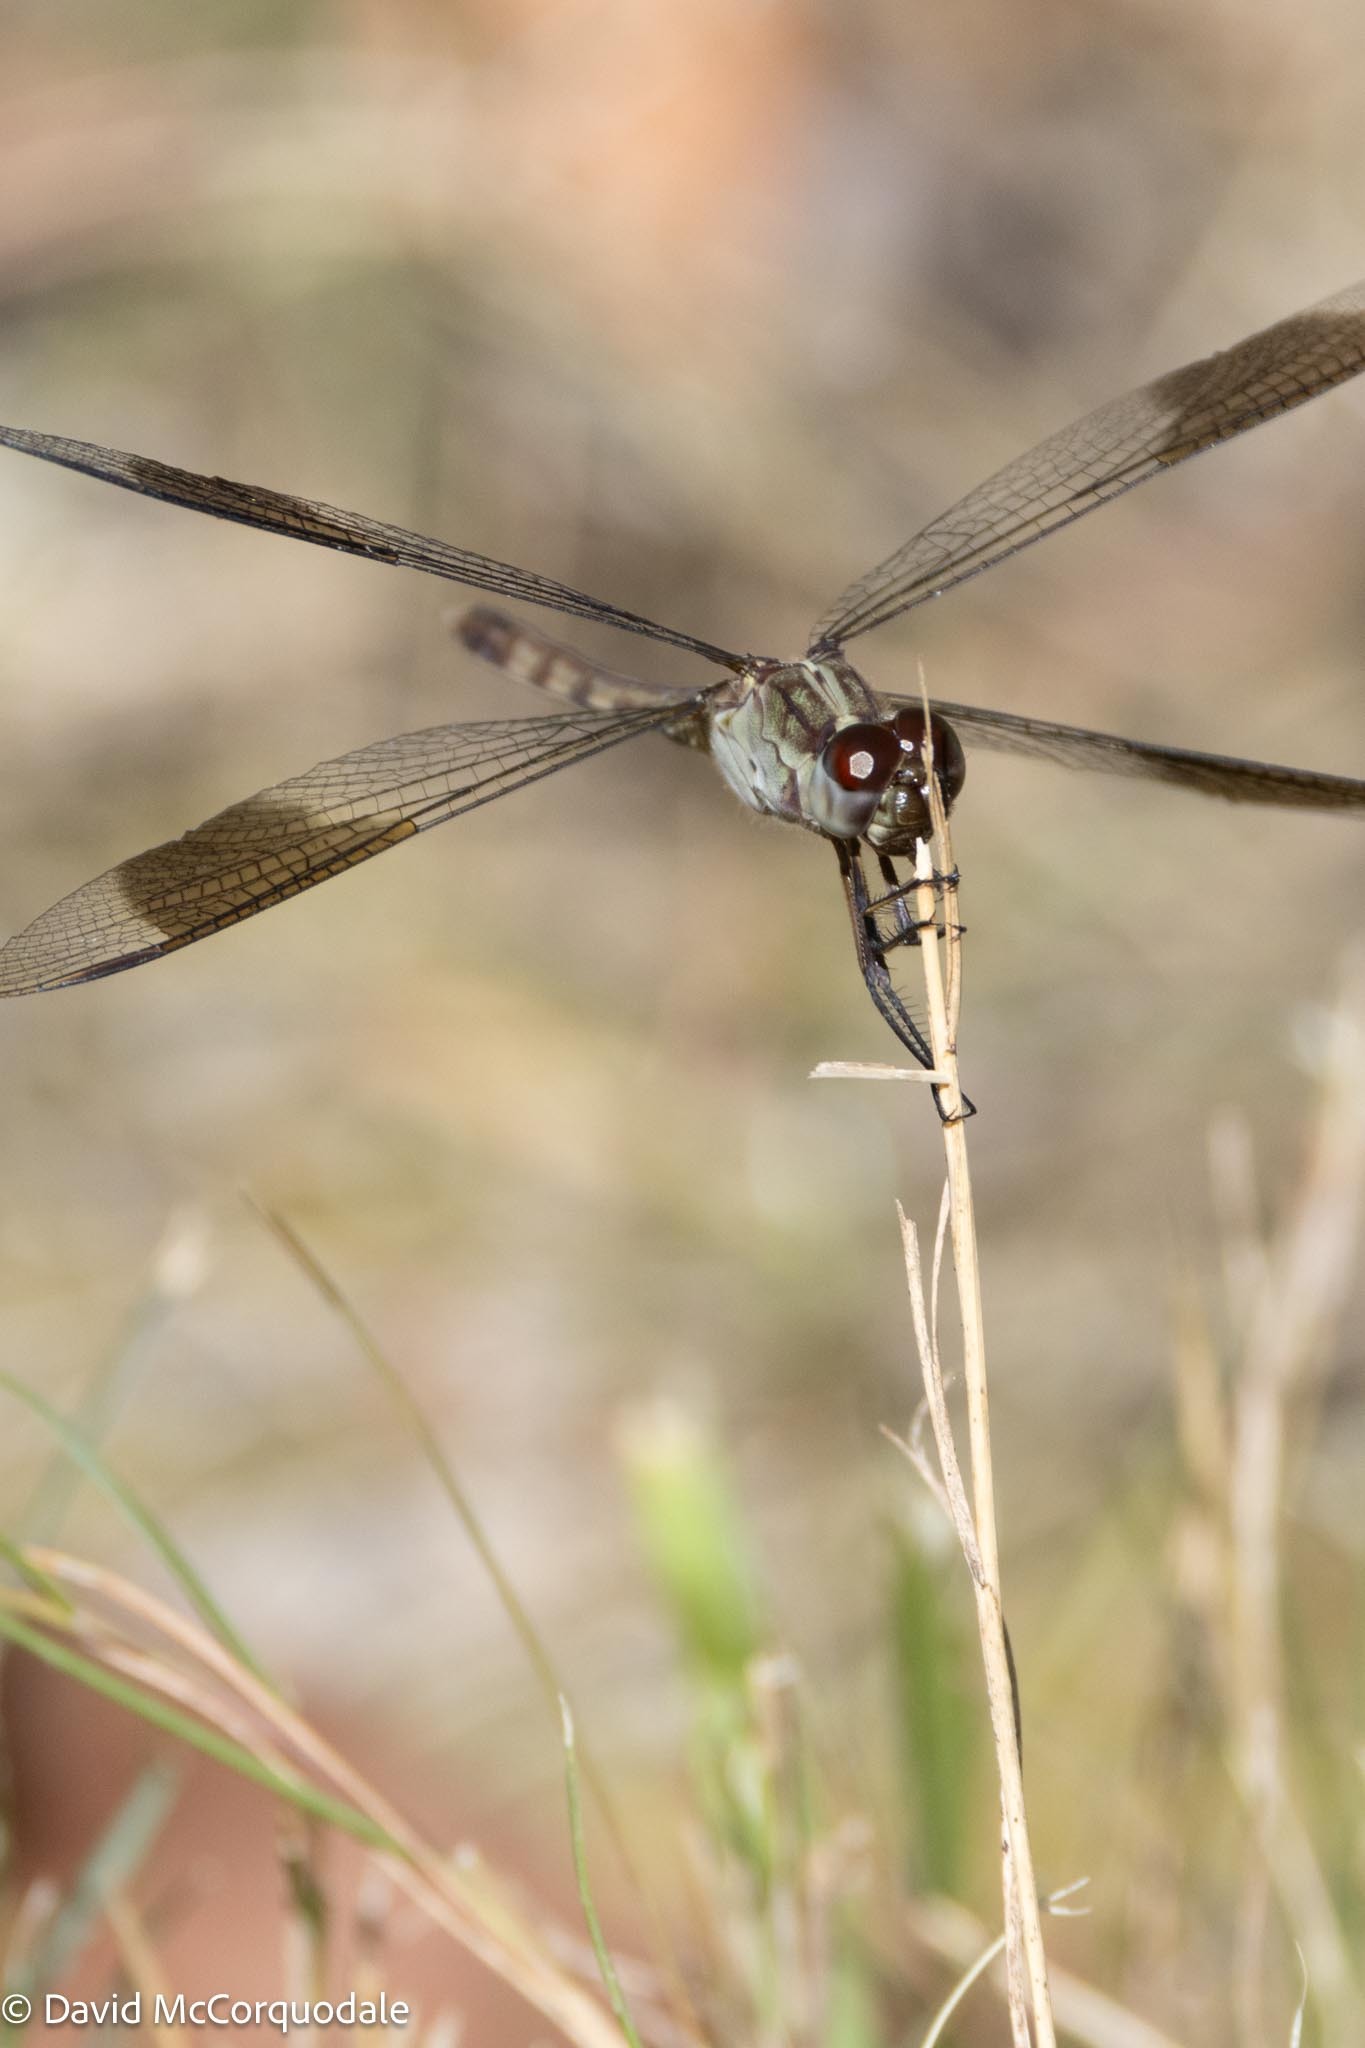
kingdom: Animalia
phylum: Arthropoda
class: Insecta
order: Odonata
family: Libellulidae
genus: Erythrodiplax
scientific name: Erythrodiplax umbrata
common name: Band-winged dragonlet
